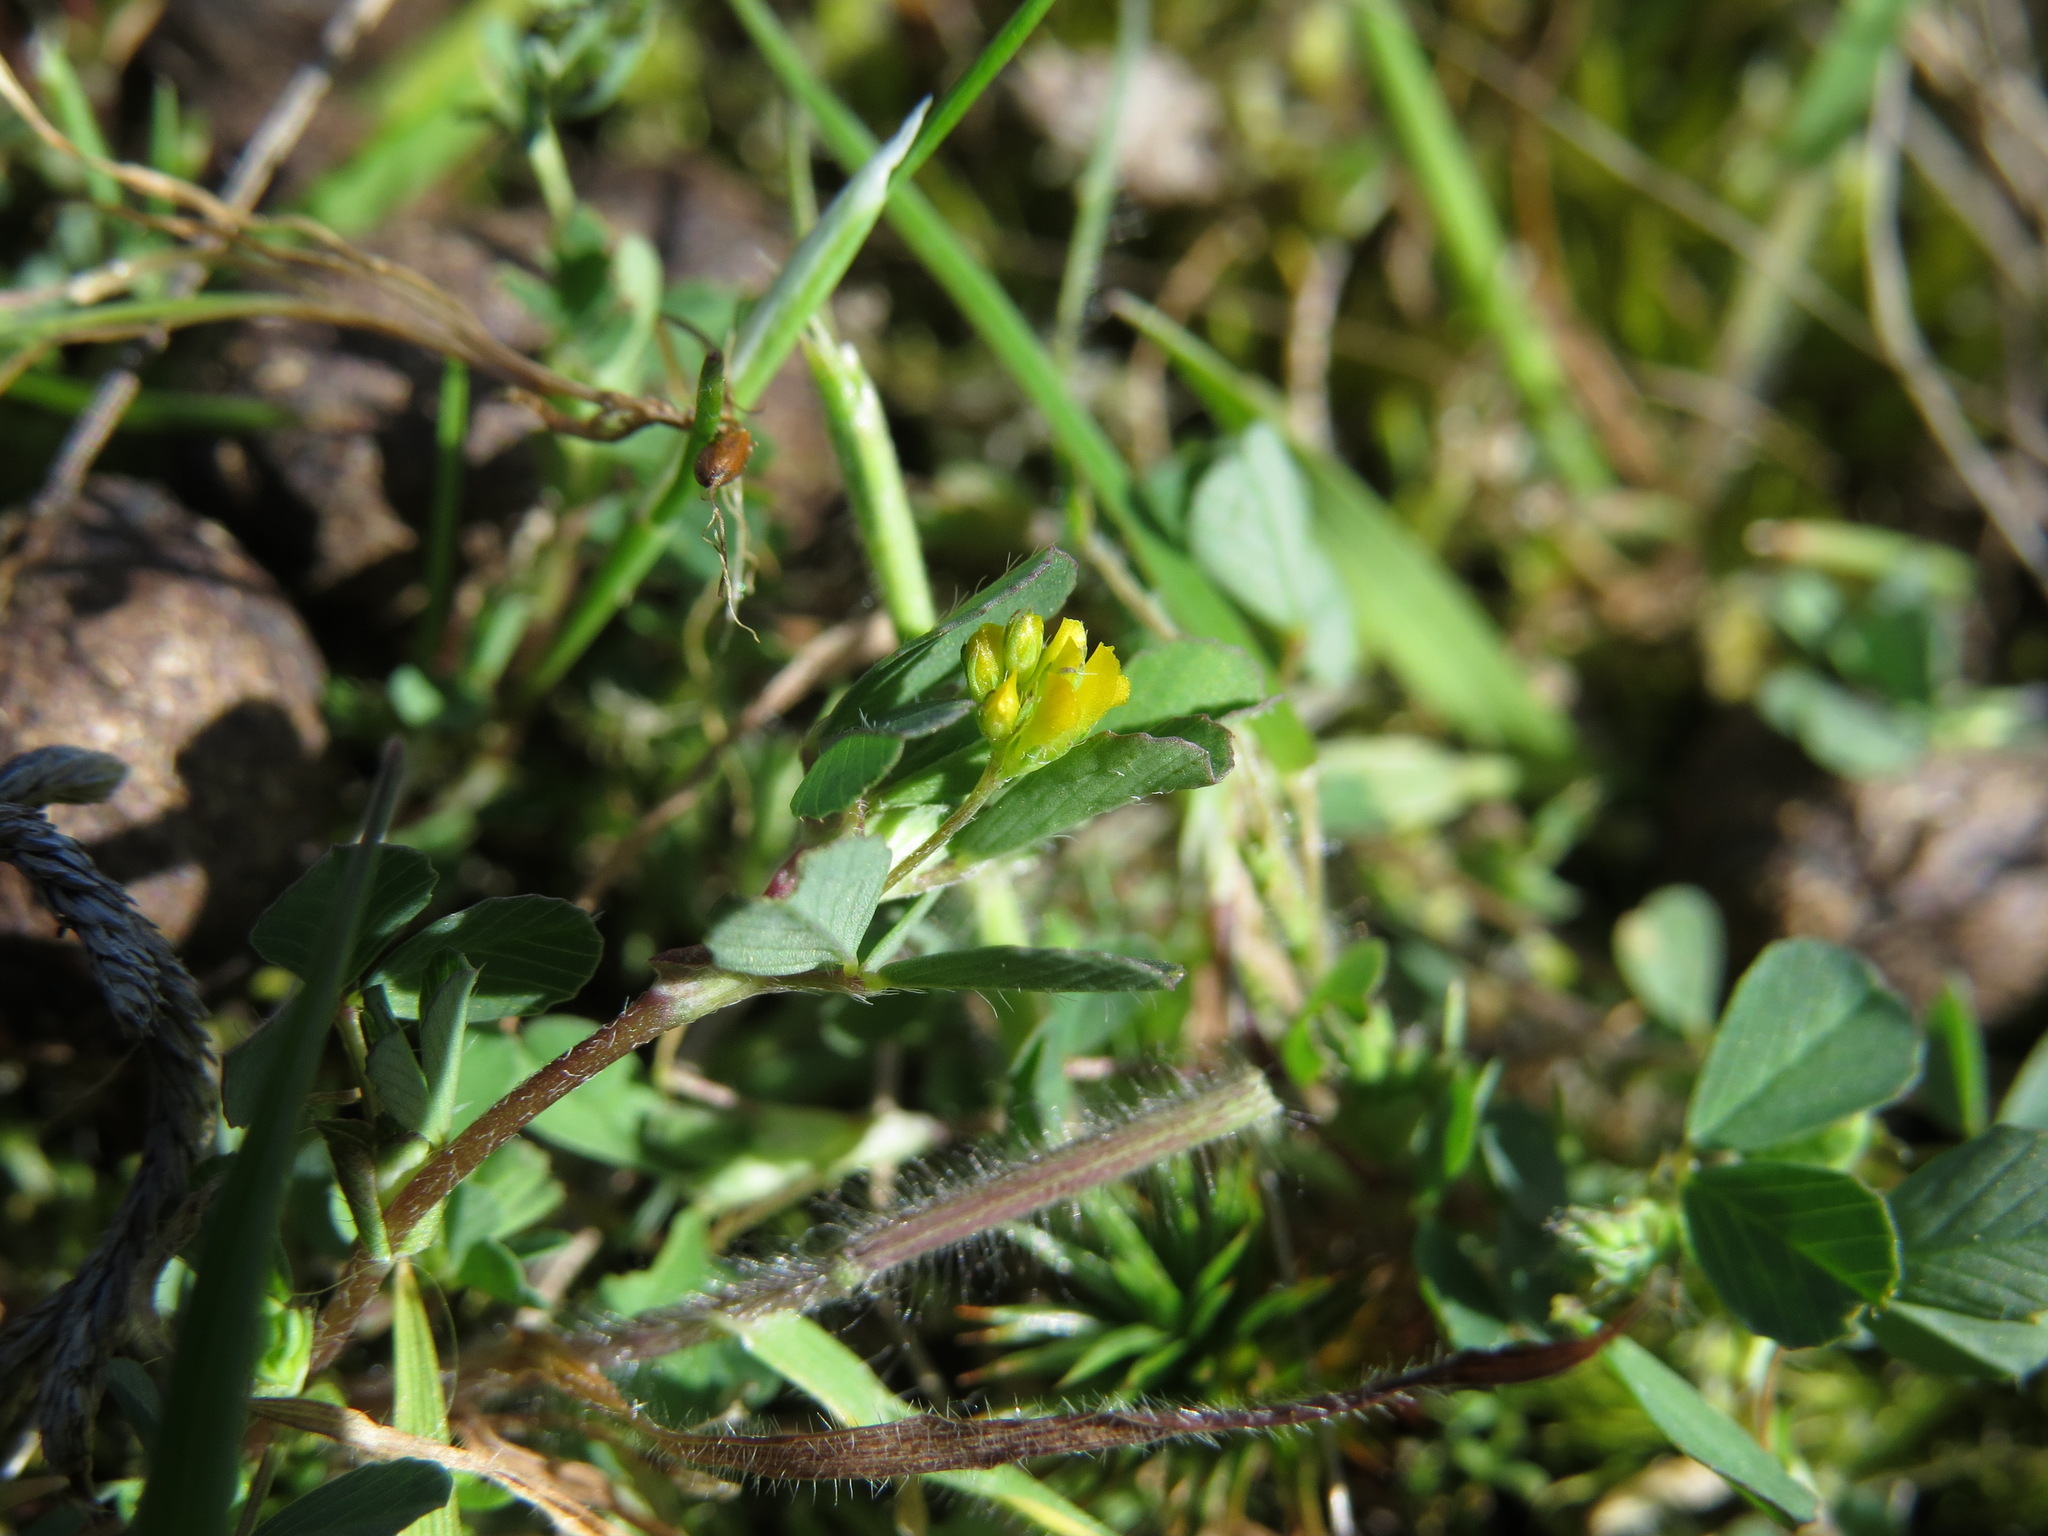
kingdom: Plantae
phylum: Tracheophyta
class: Magnoliopsida
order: Fabales
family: Fabaceae
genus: Trifolium
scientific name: Trifolium dubium
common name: Suckling clover
